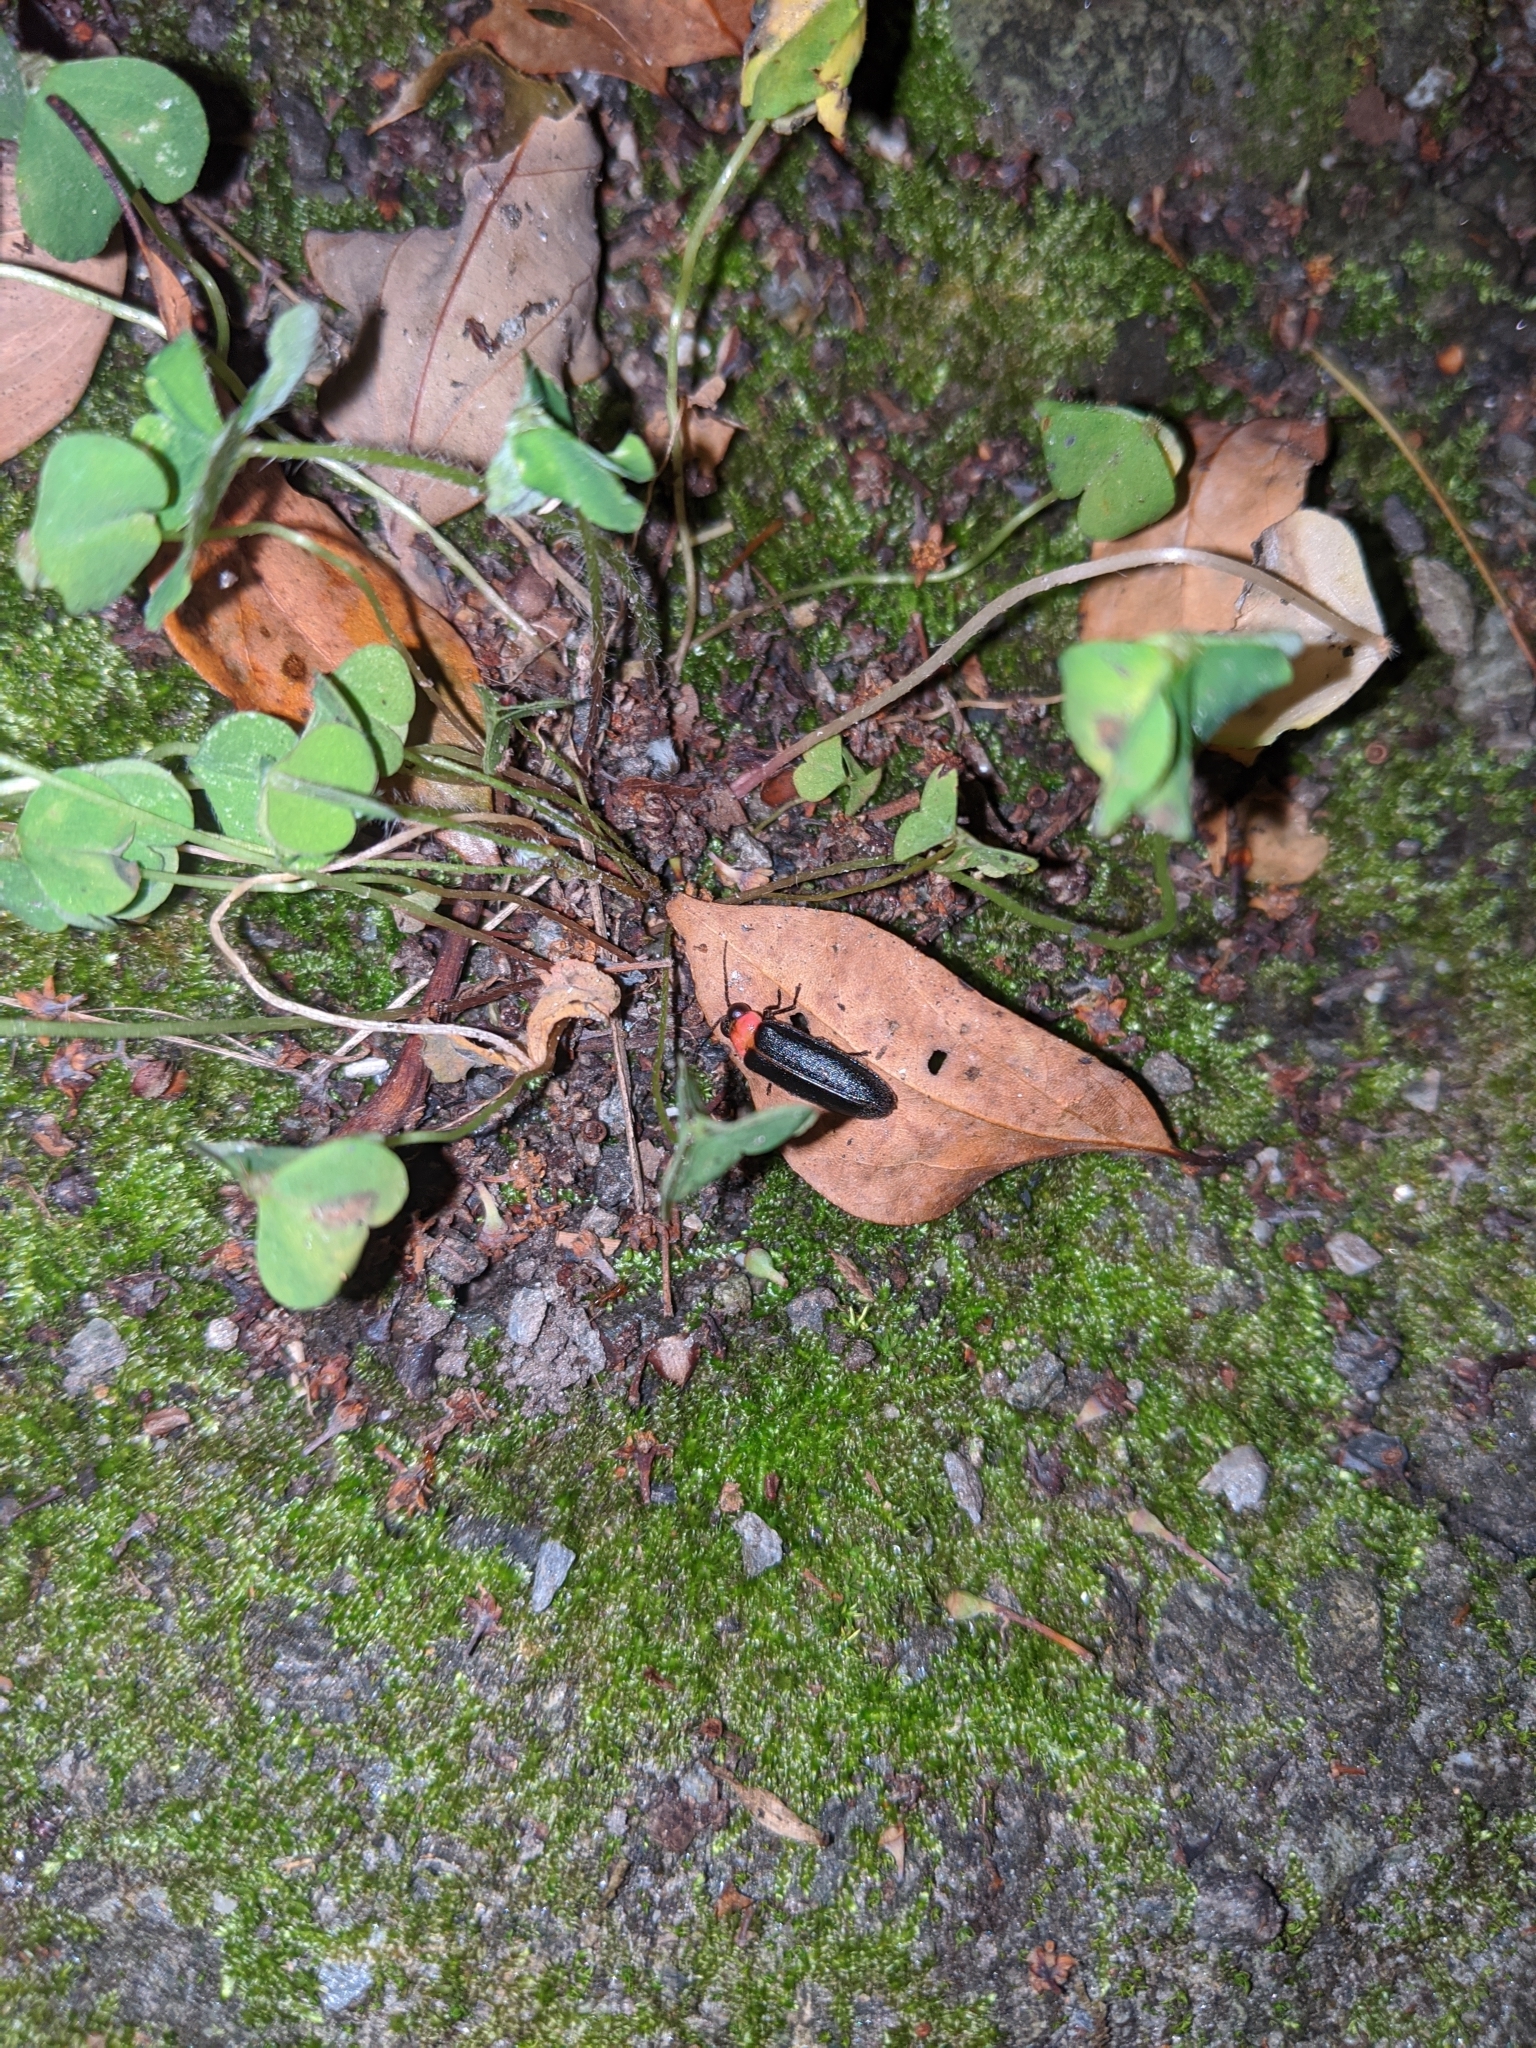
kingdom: Animalia
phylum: Arthropoda
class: Insecta
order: Coleoptera
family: Lampyridae
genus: Luciola
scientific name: Luciola kagiana
